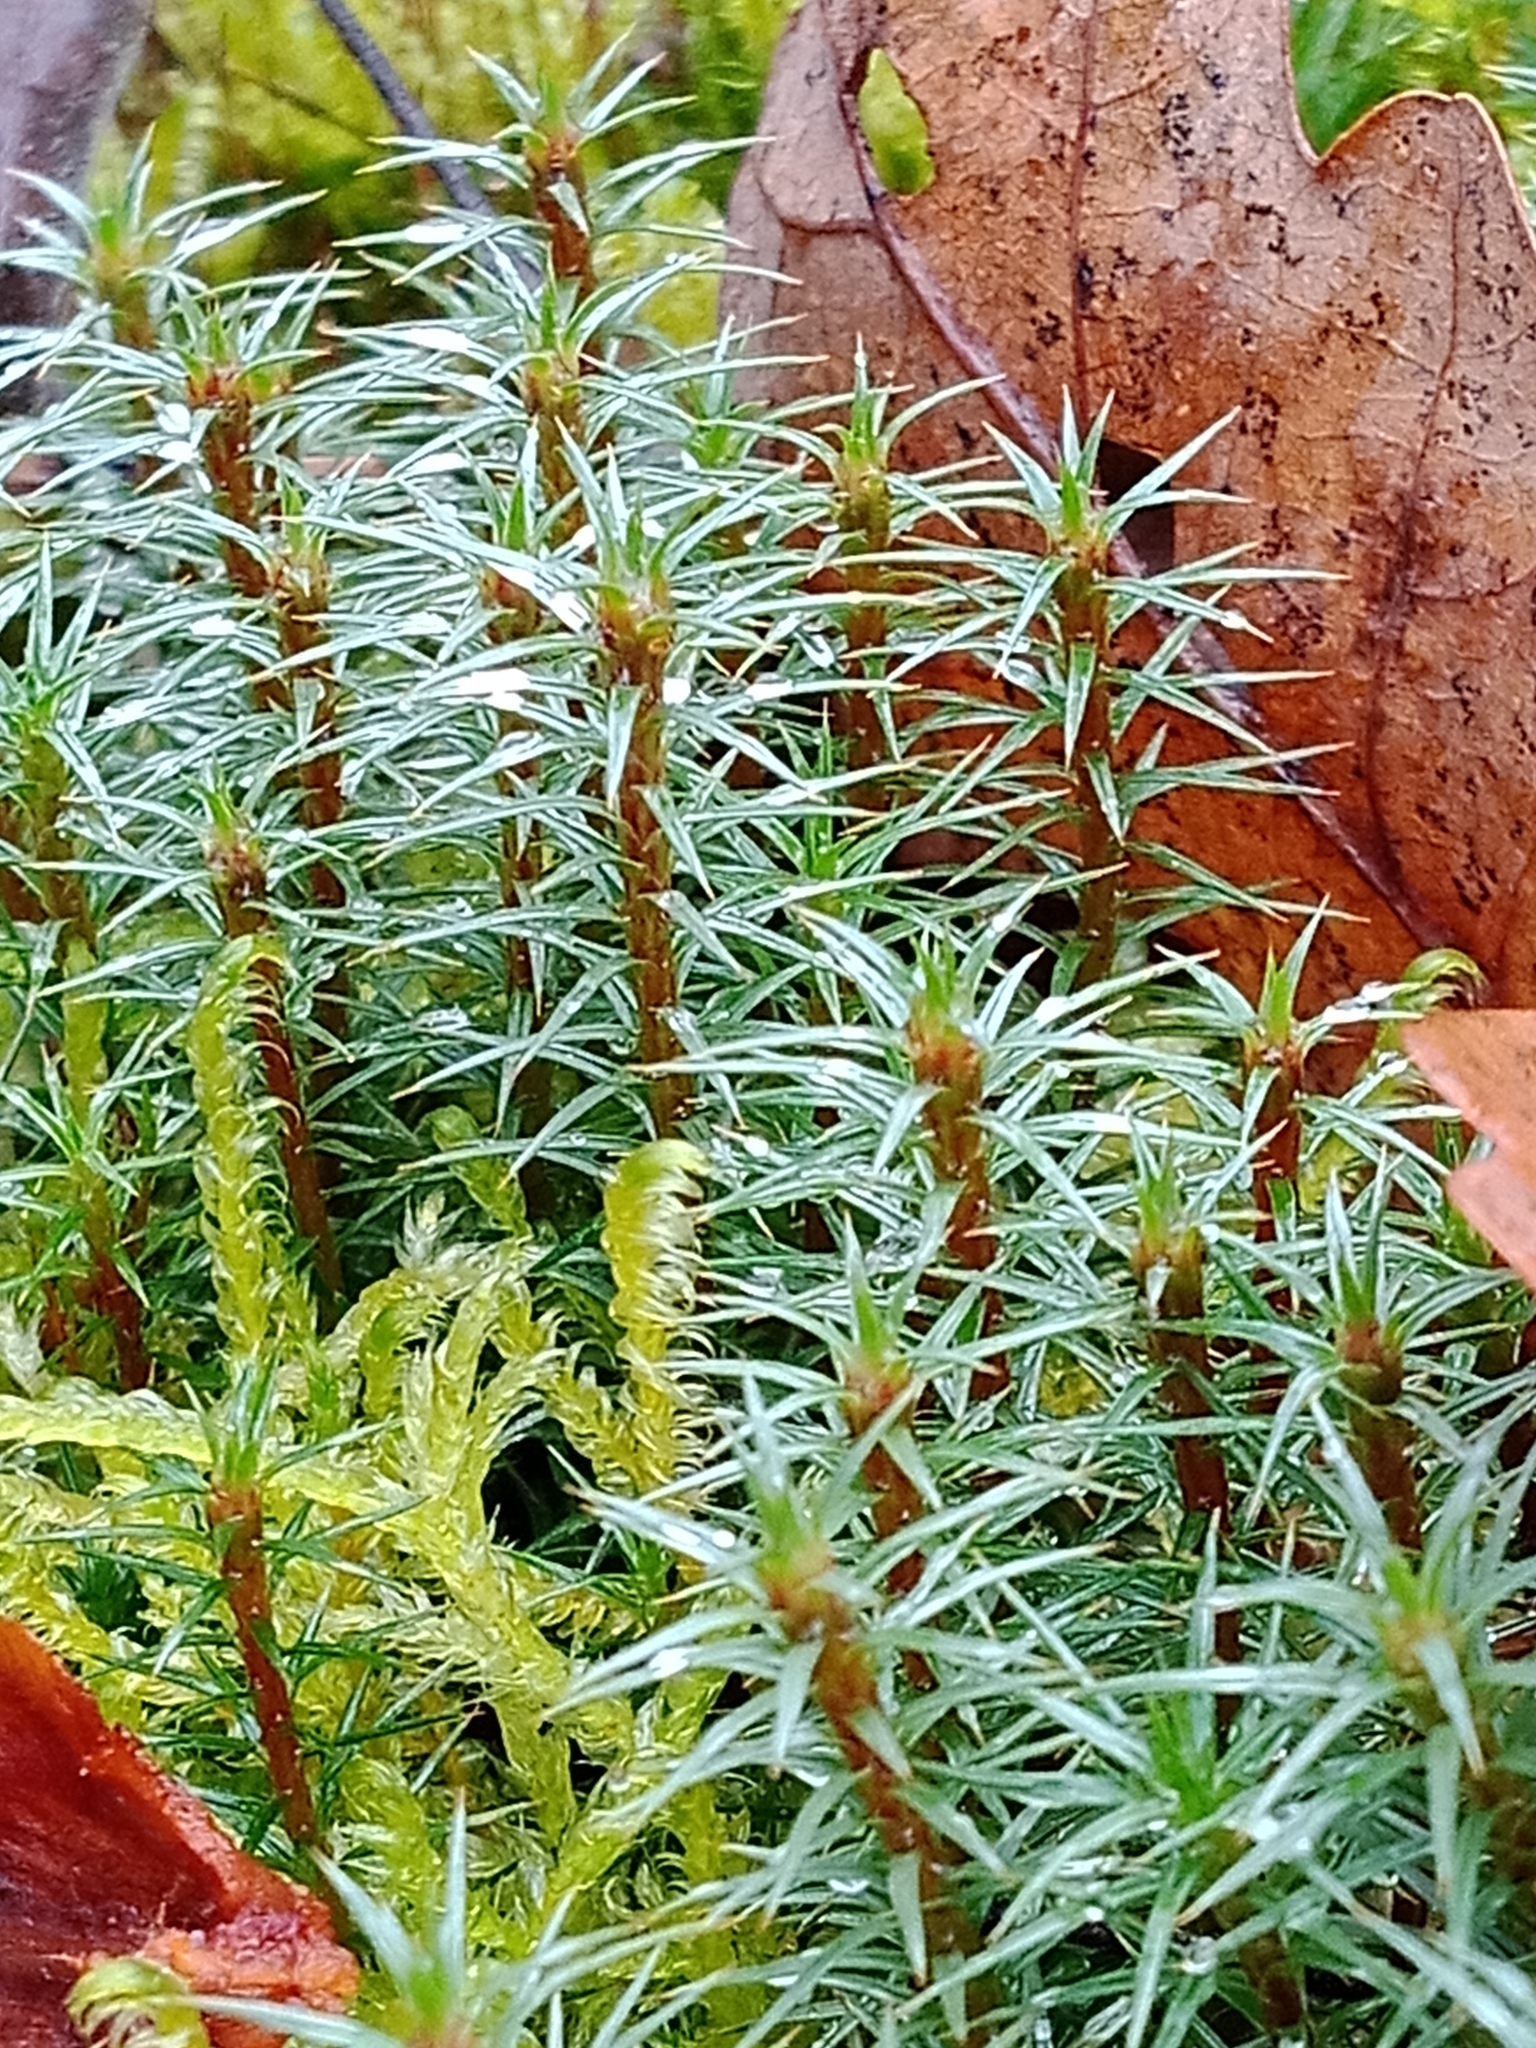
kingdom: Plantae
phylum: Bryophyta
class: Polytrichopsida
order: Polytrichales
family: Polytrichaceae
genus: Polytrichum
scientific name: Polytrichum juniperinum
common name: Juniper haircap moss
